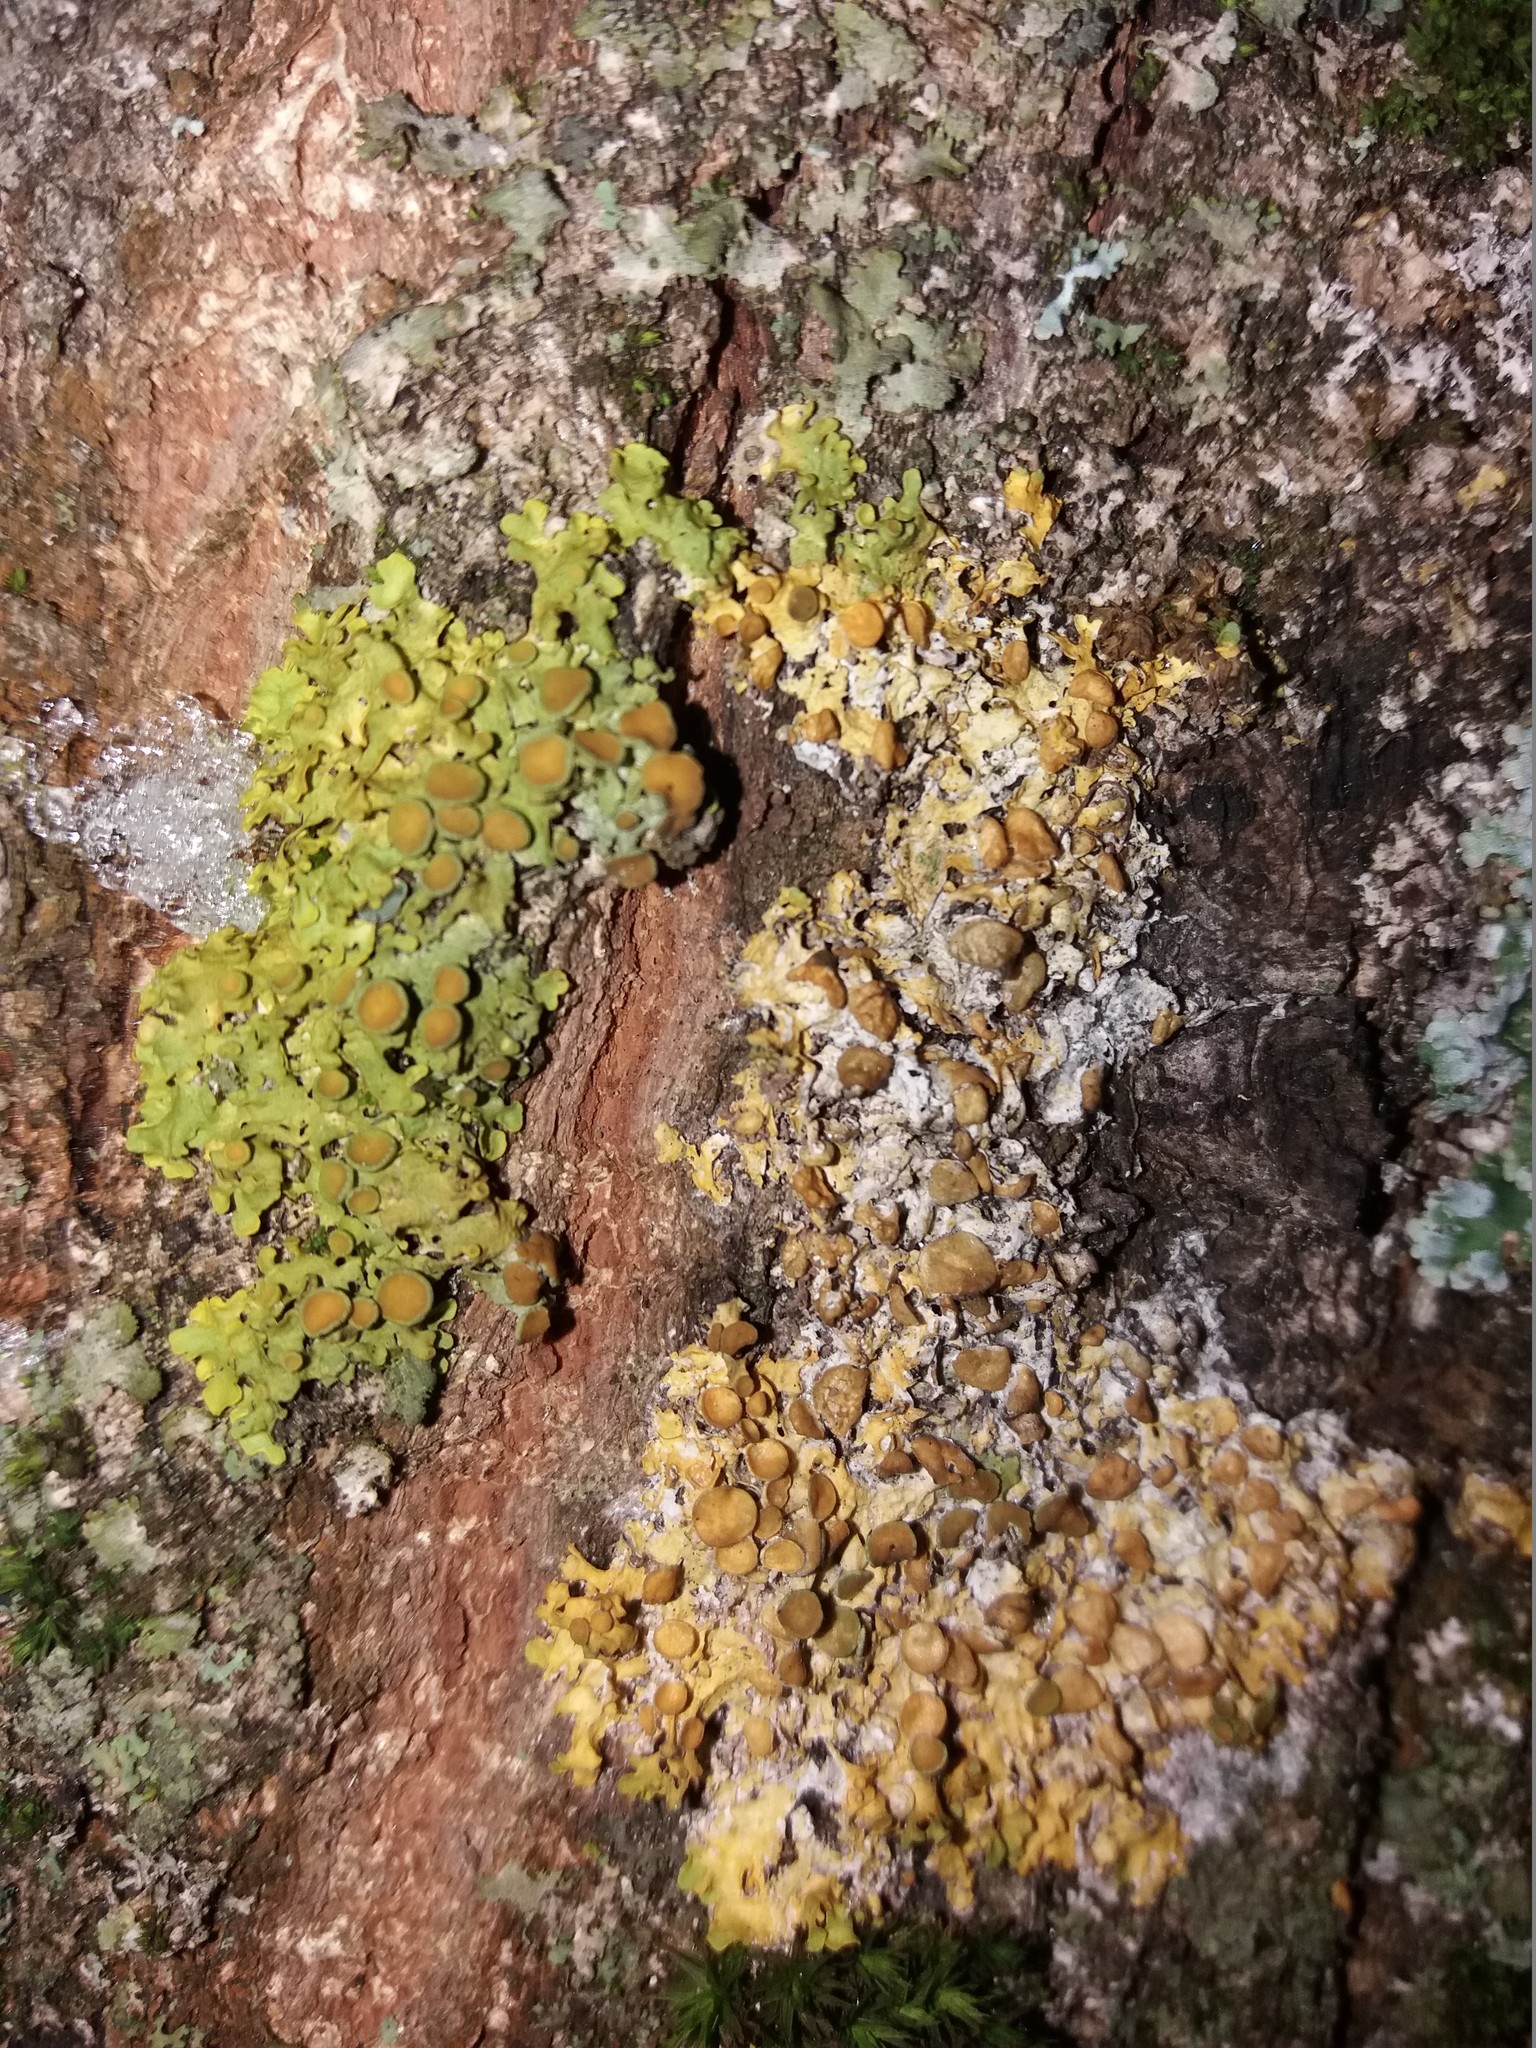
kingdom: Fungi
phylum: Ascomycota
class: Lecanoromycetes
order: Teloschistales
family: Teloschistaceae
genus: Xanthoria
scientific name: Xanthoria parietina
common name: Common orange lichen
